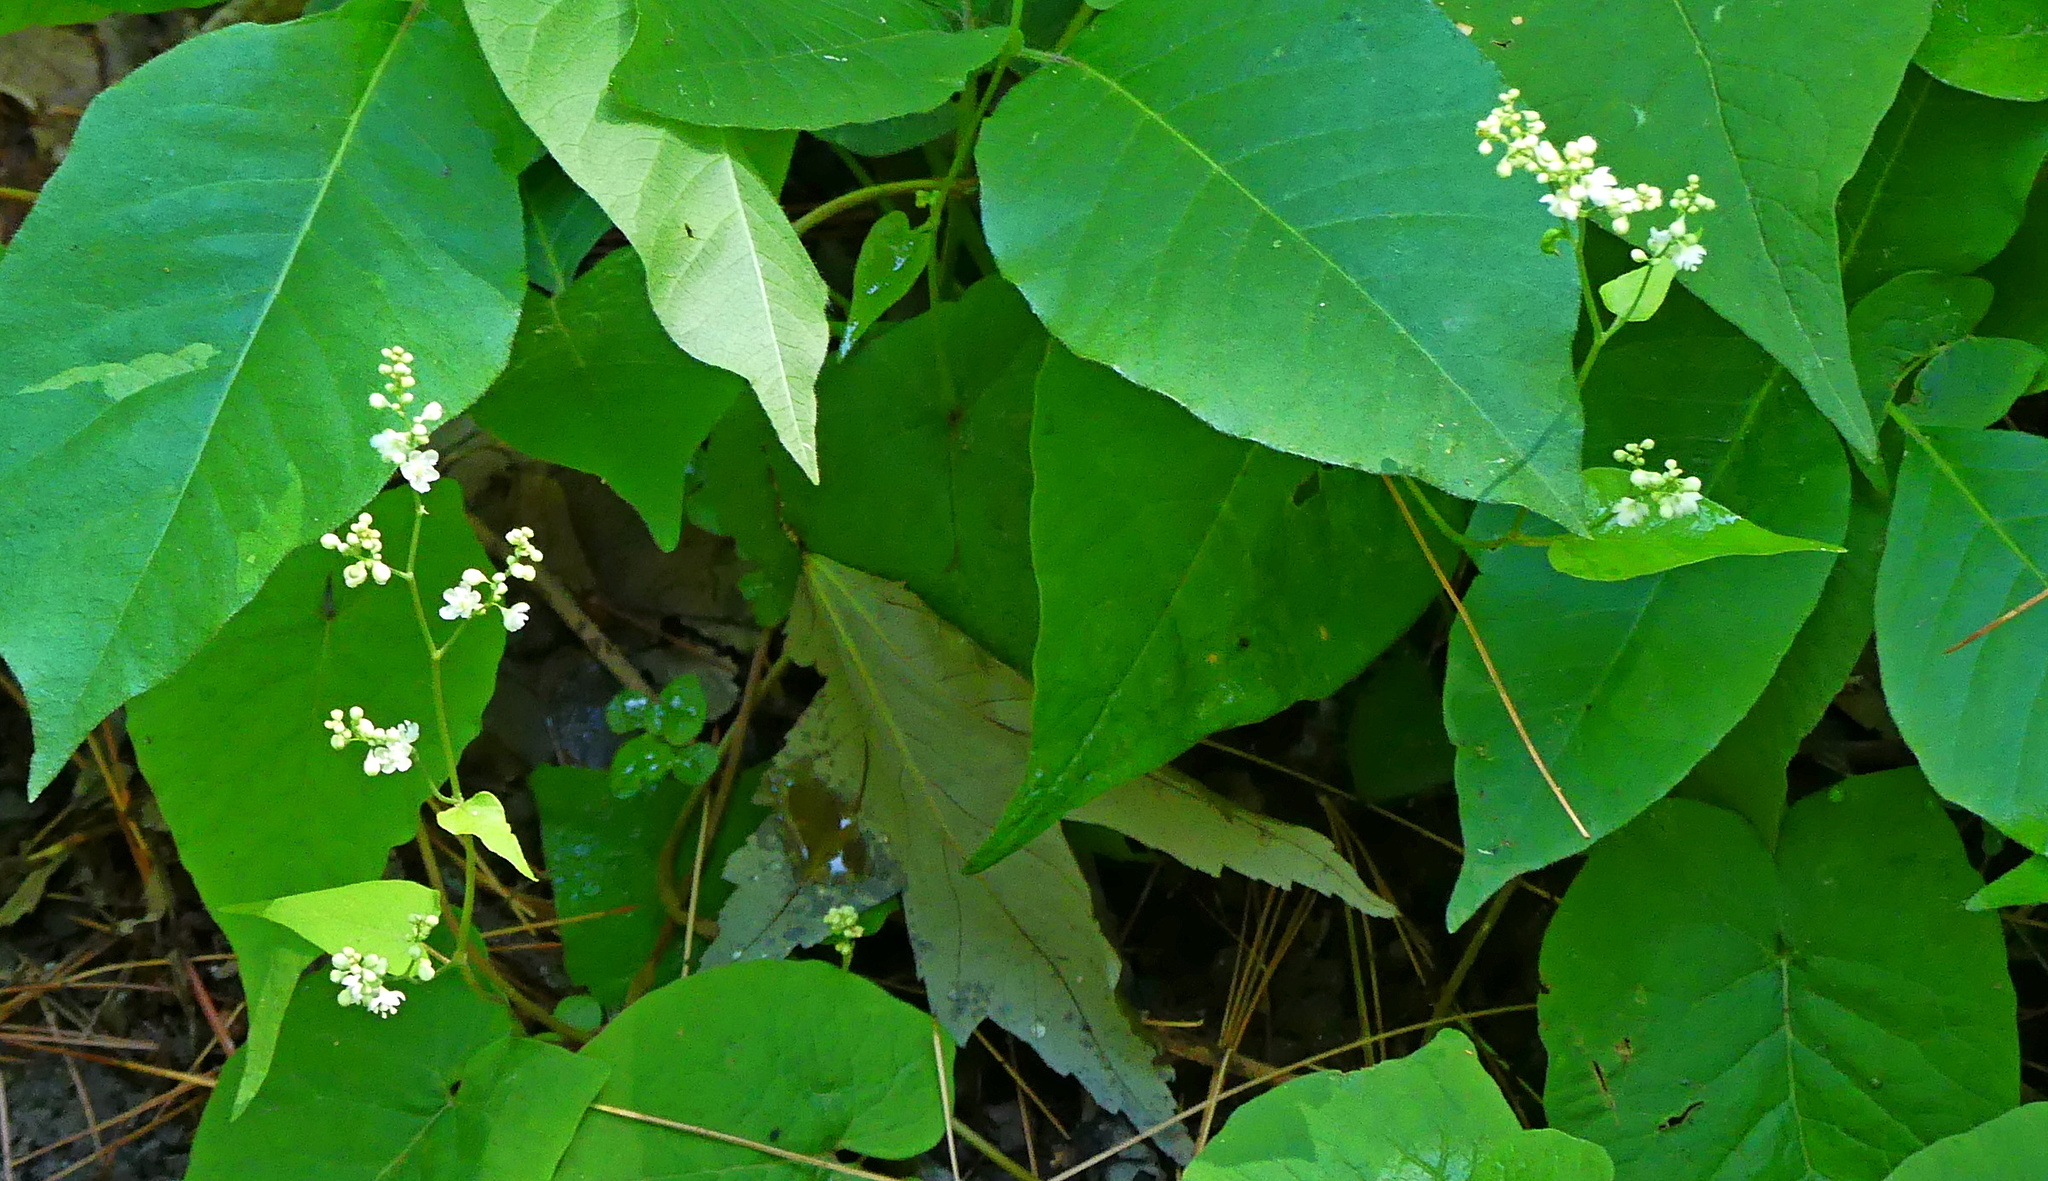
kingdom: Plantae
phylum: Tracheophyta
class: Magnoliopsida
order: Caryophyllales
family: Polygonaceae
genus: Fallopia
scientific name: Fallopia convolvulus
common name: Black bindweed
